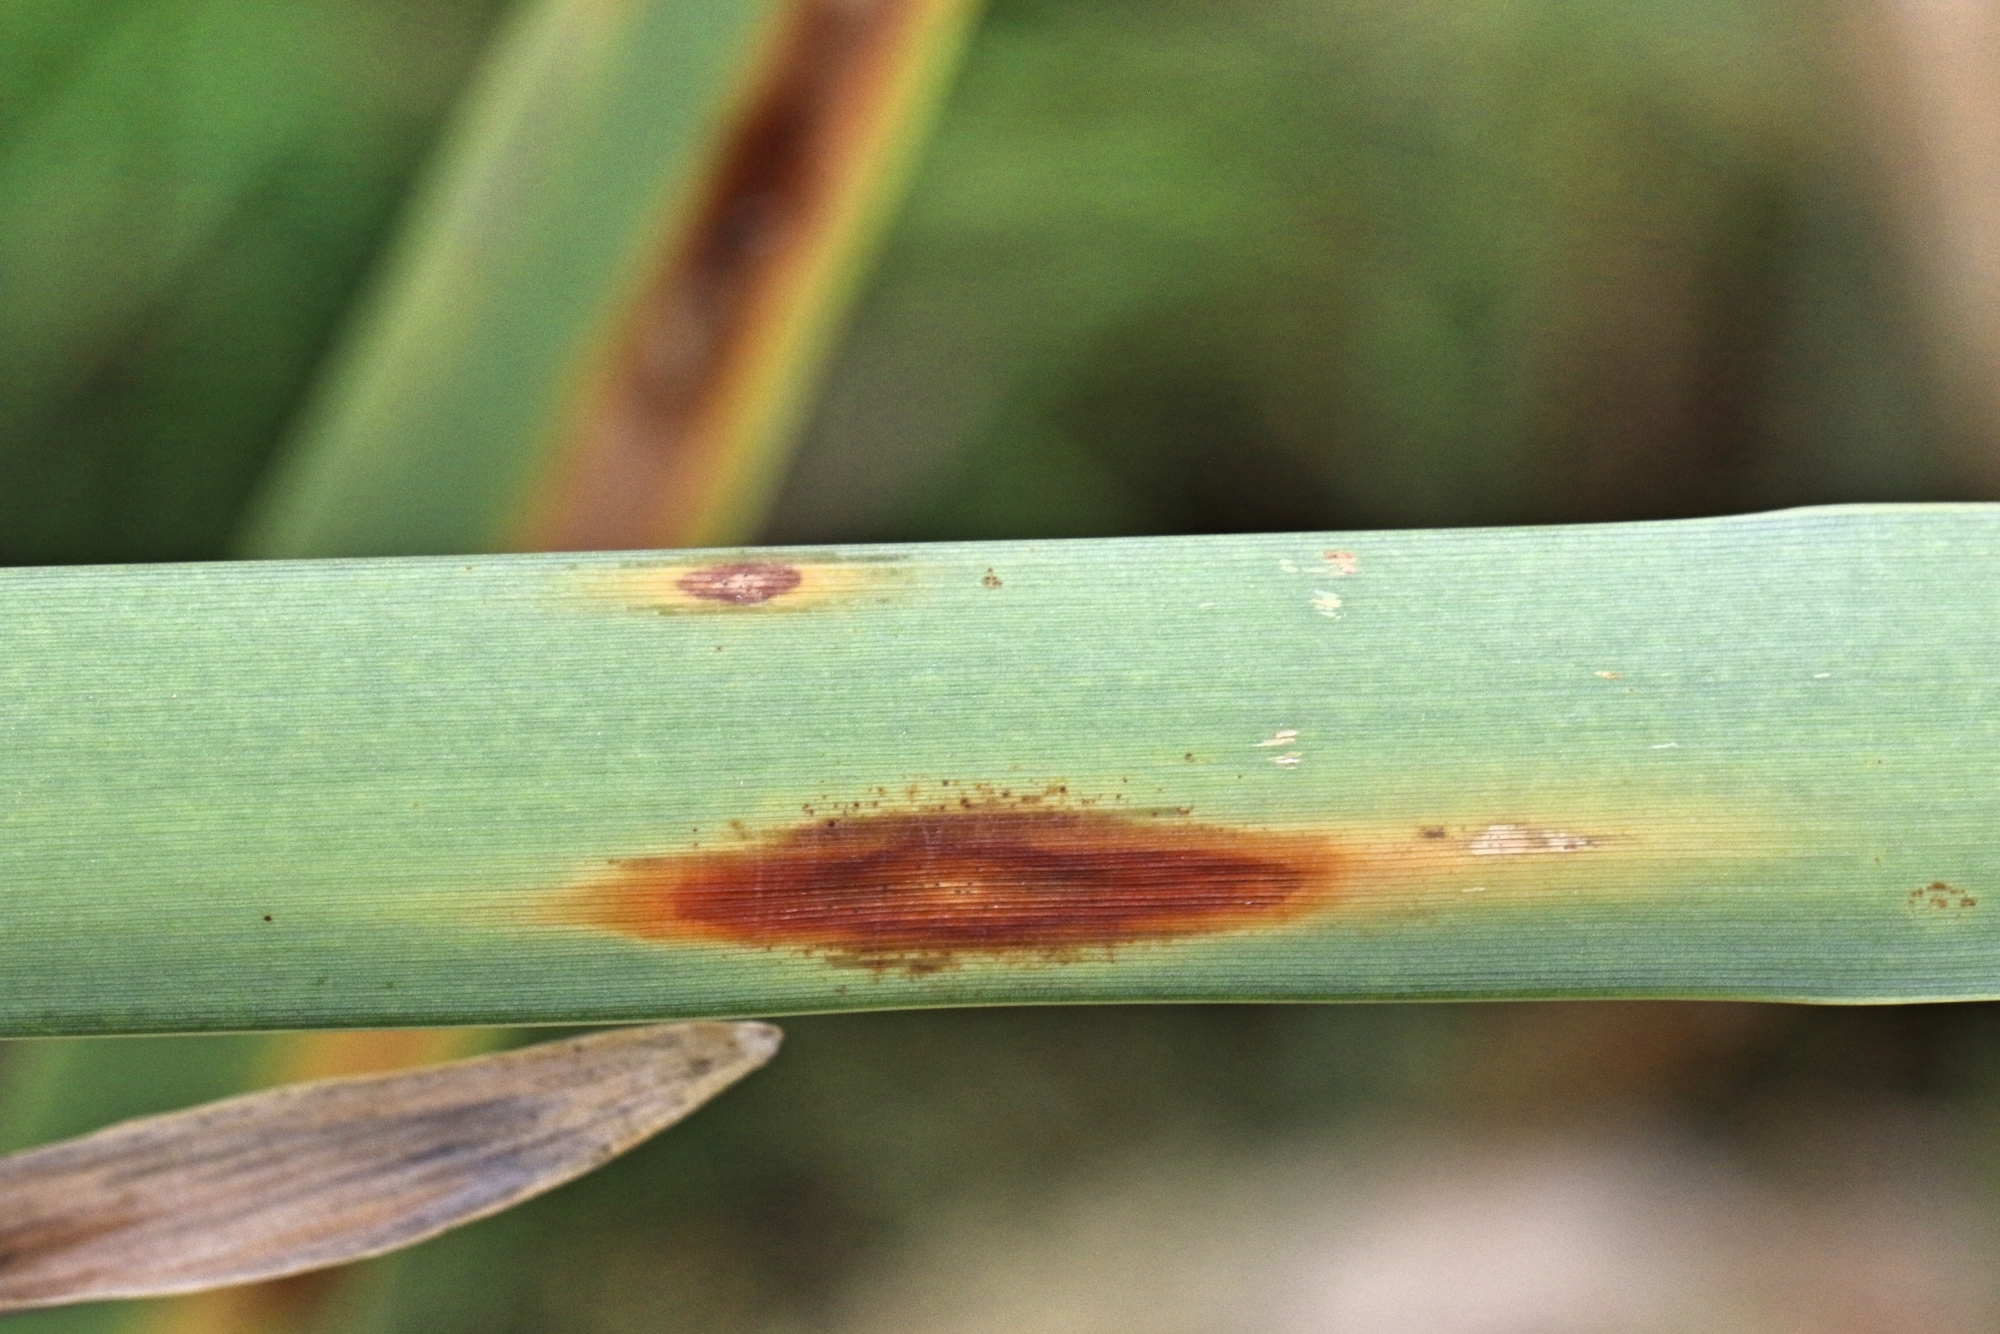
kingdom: Fungi
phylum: Ascomycota
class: Sordariomycetes
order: Glomerellales
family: Glomerellaceae
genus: Colletotrichum
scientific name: Colletotrichum typhae
